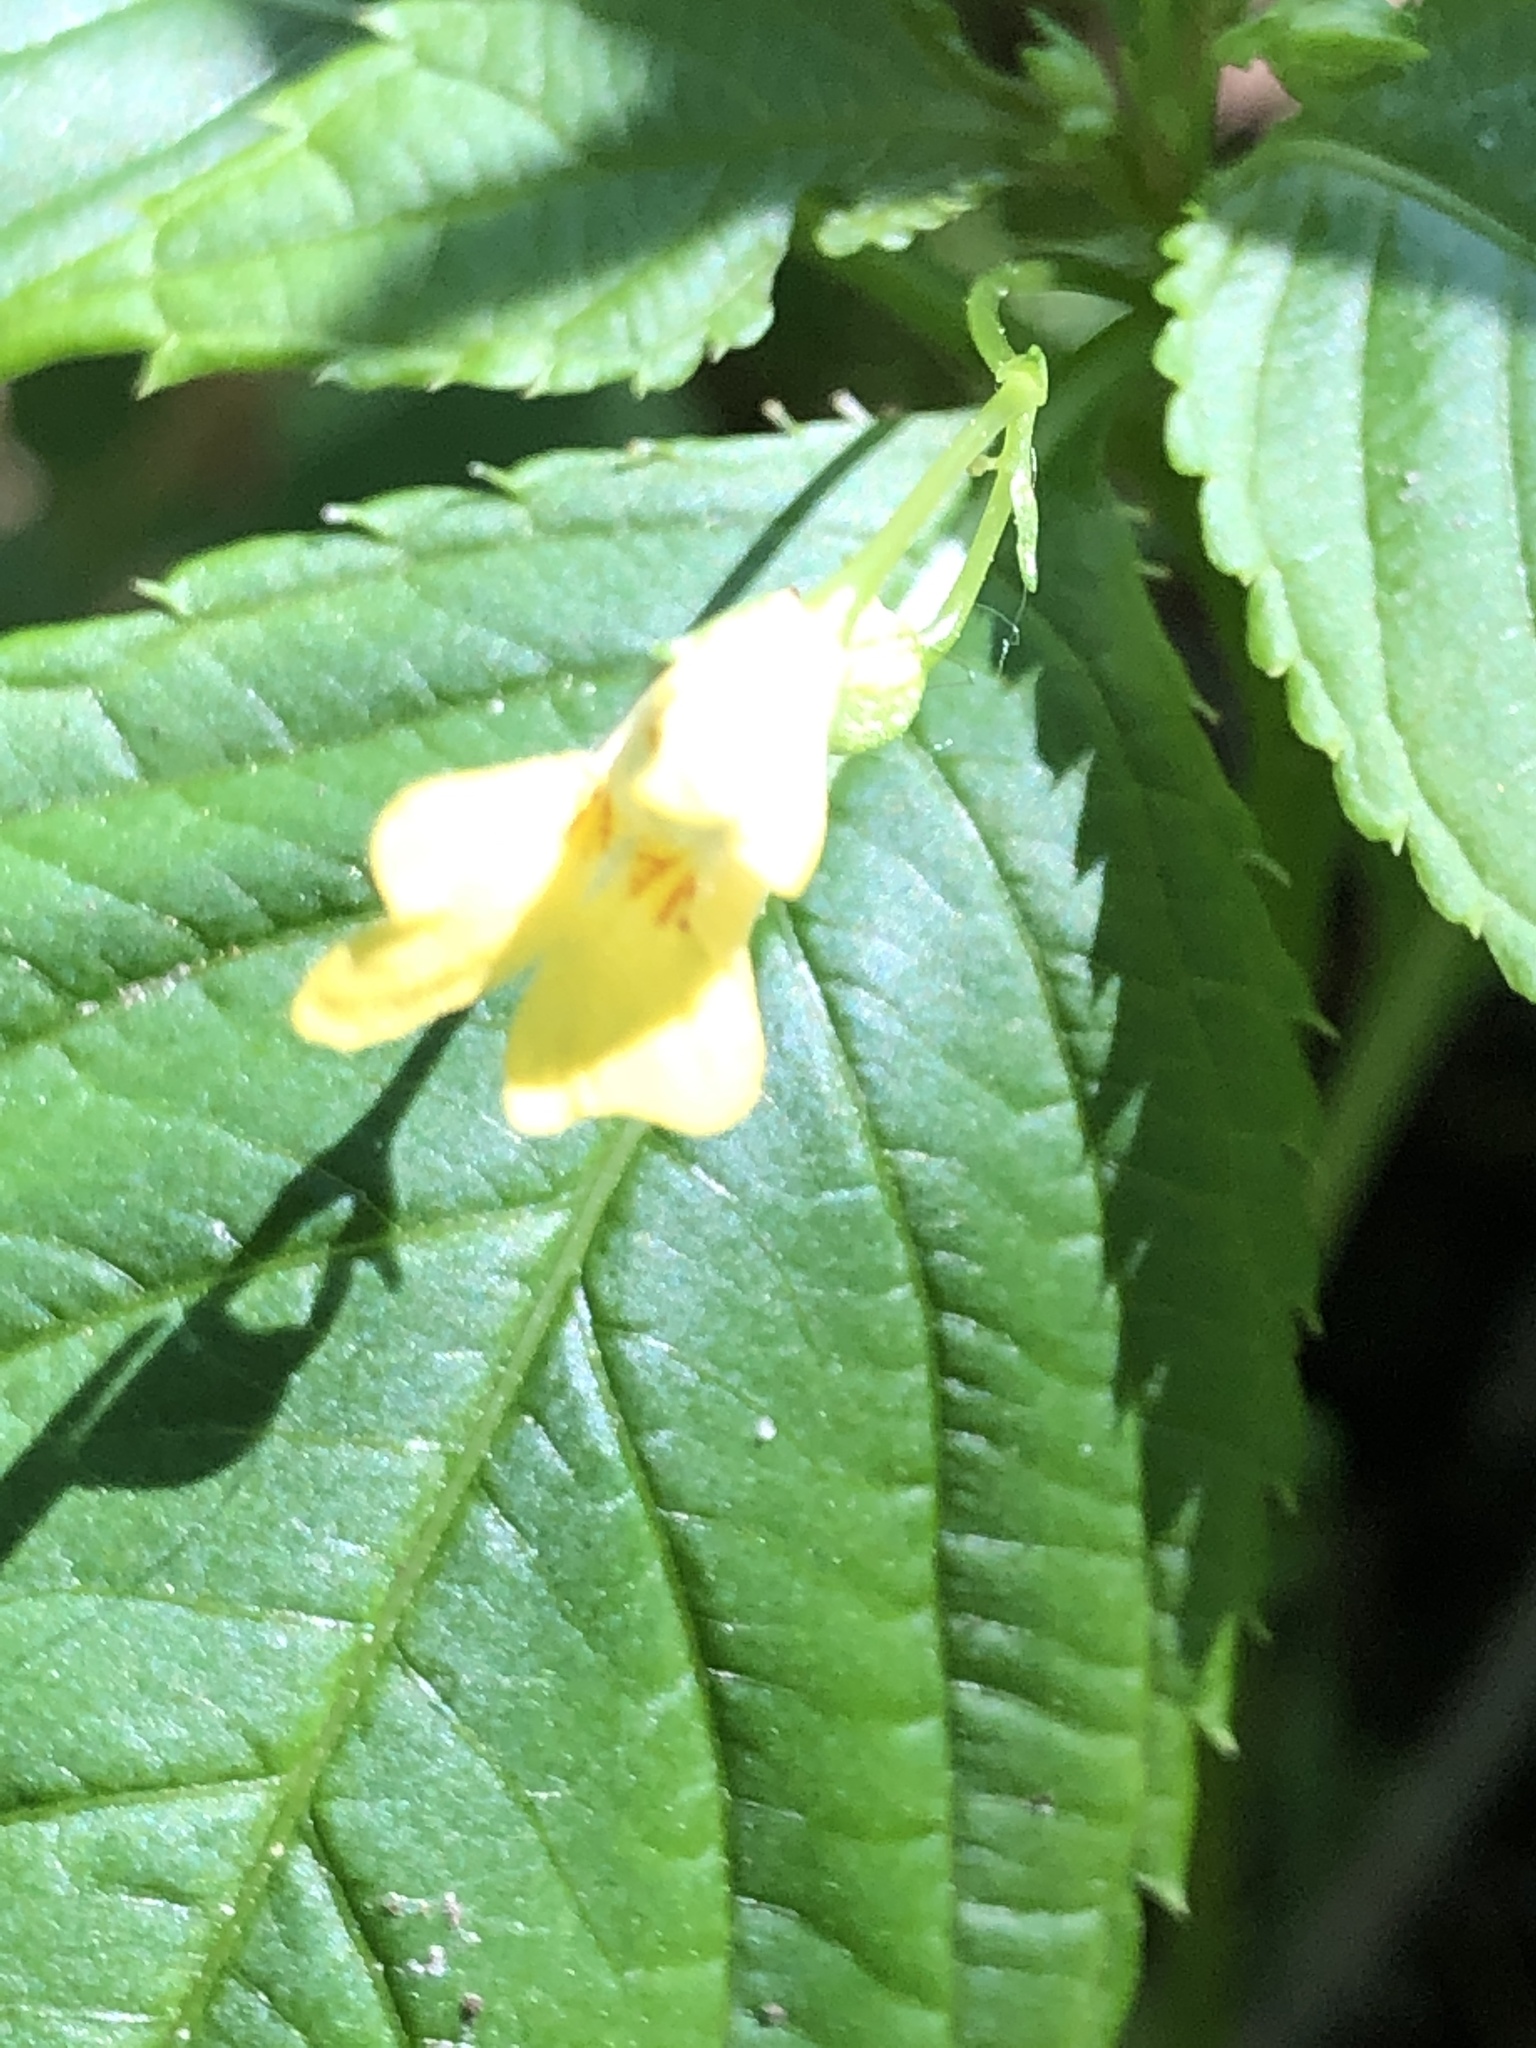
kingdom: Plantae
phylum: Tracheophyta
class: Magnoliopsida
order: Ericales
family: Balsaminaceae
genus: Impatiens
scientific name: Impatiens parviflora
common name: Small balsam
